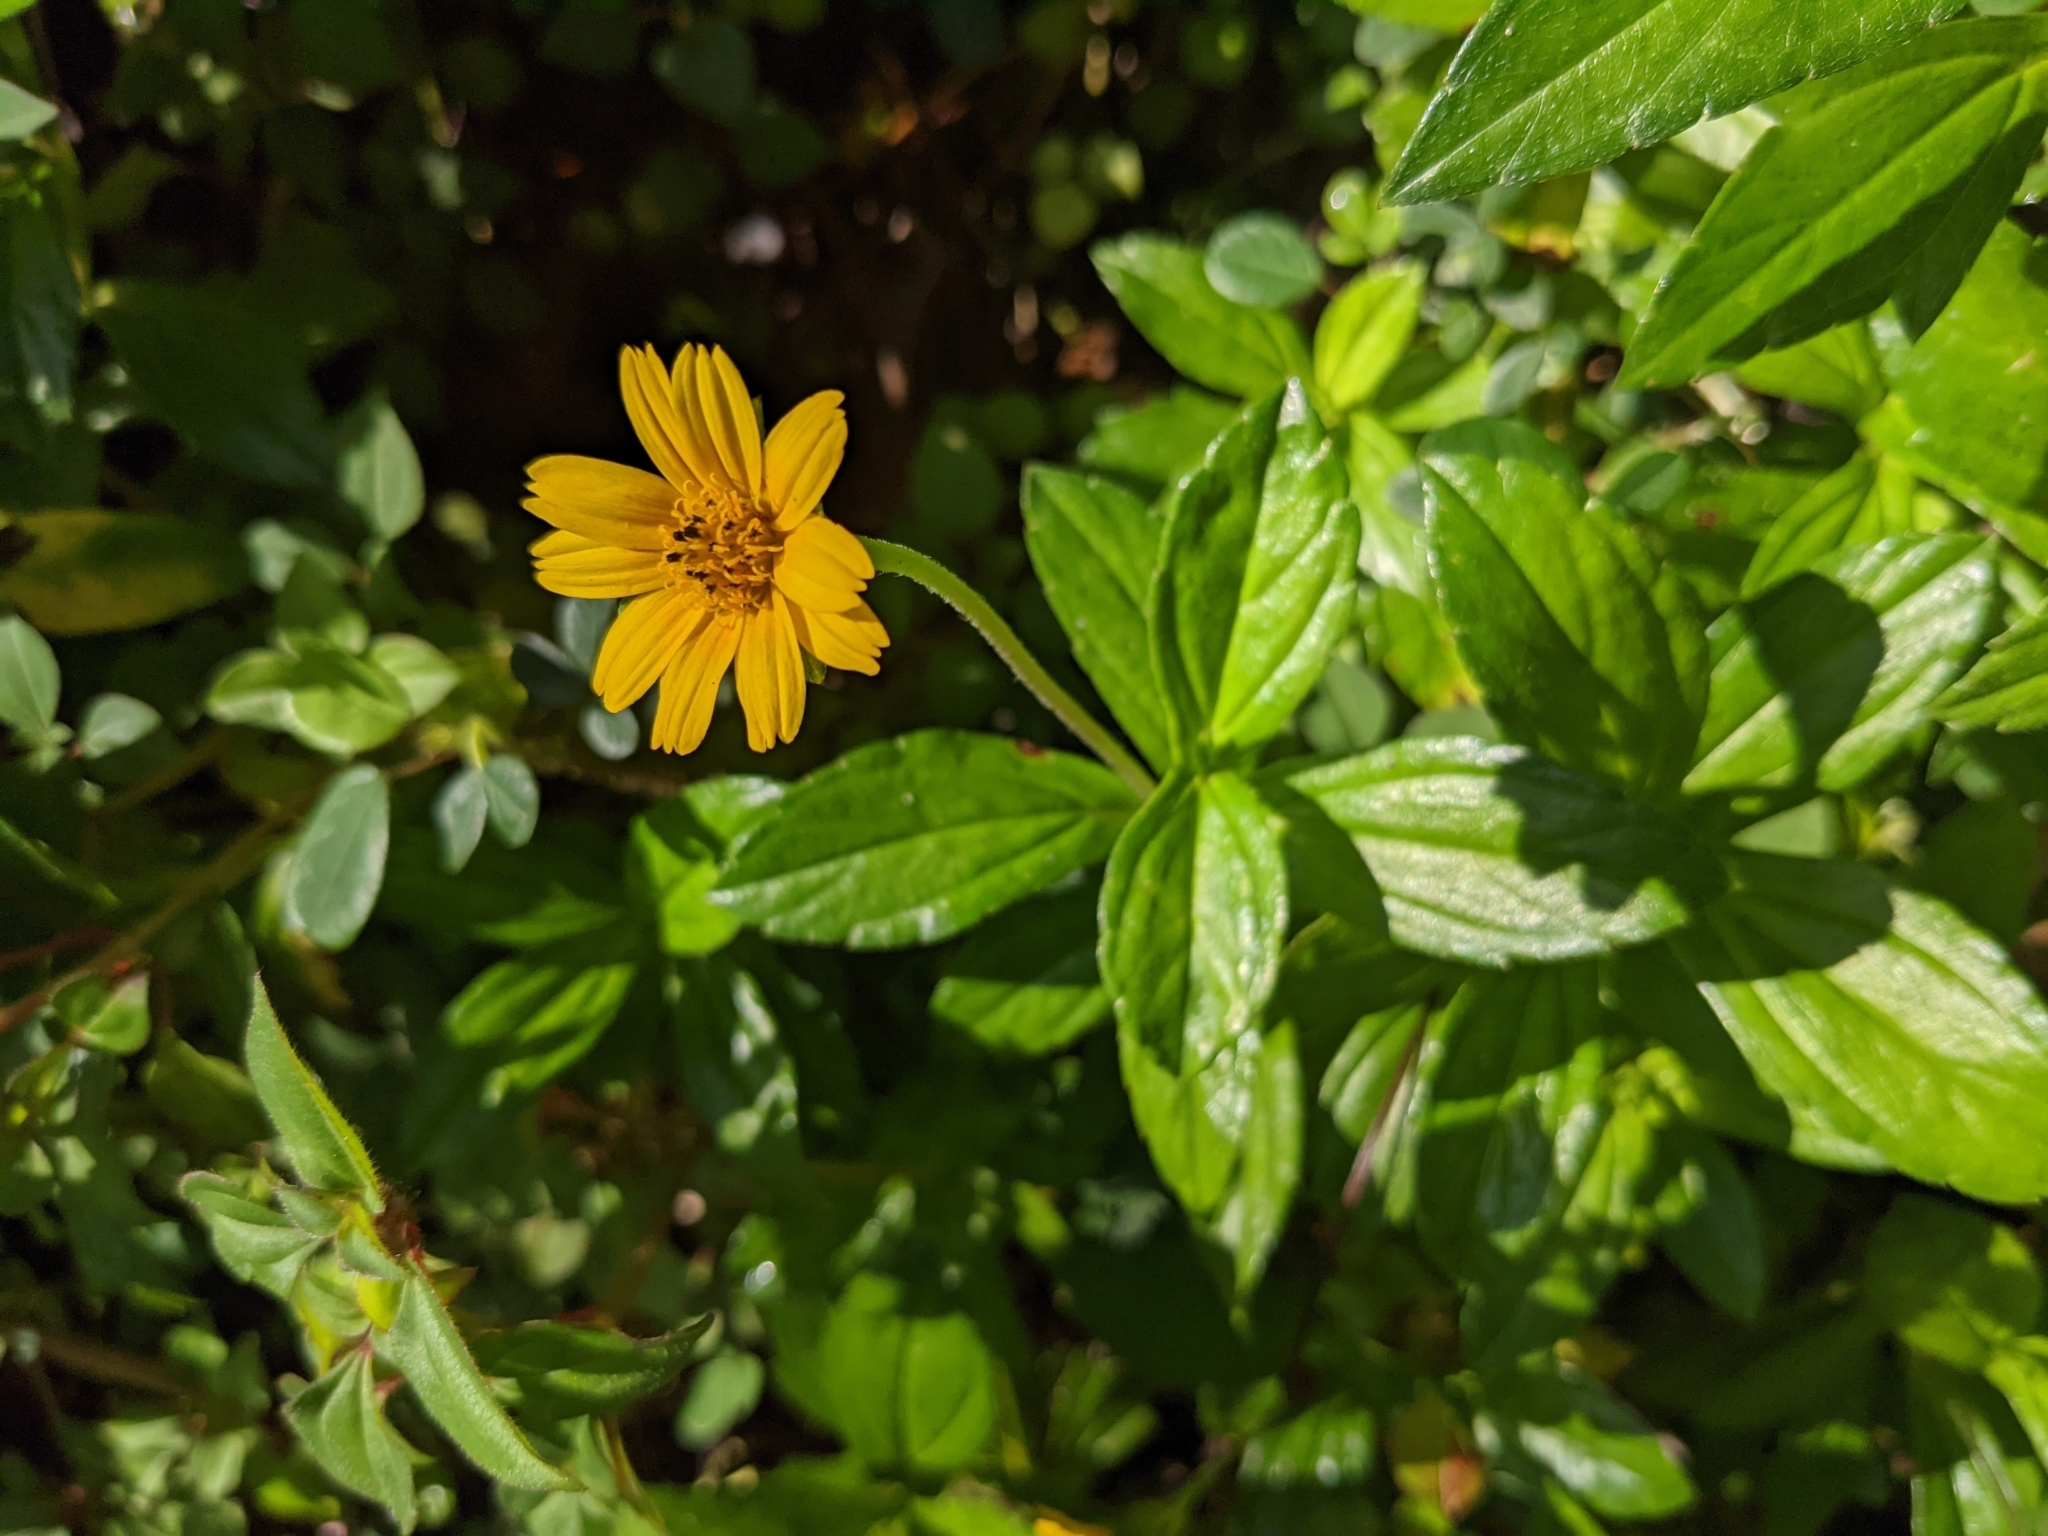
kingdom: Plantae
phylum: Tracheophyta
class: Magnoliopsida
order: Asterales
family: Asteraceae
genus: Sphagneticola
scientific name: Sphagneticola trilobata
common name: Bay biscayne creeping-oxeye
